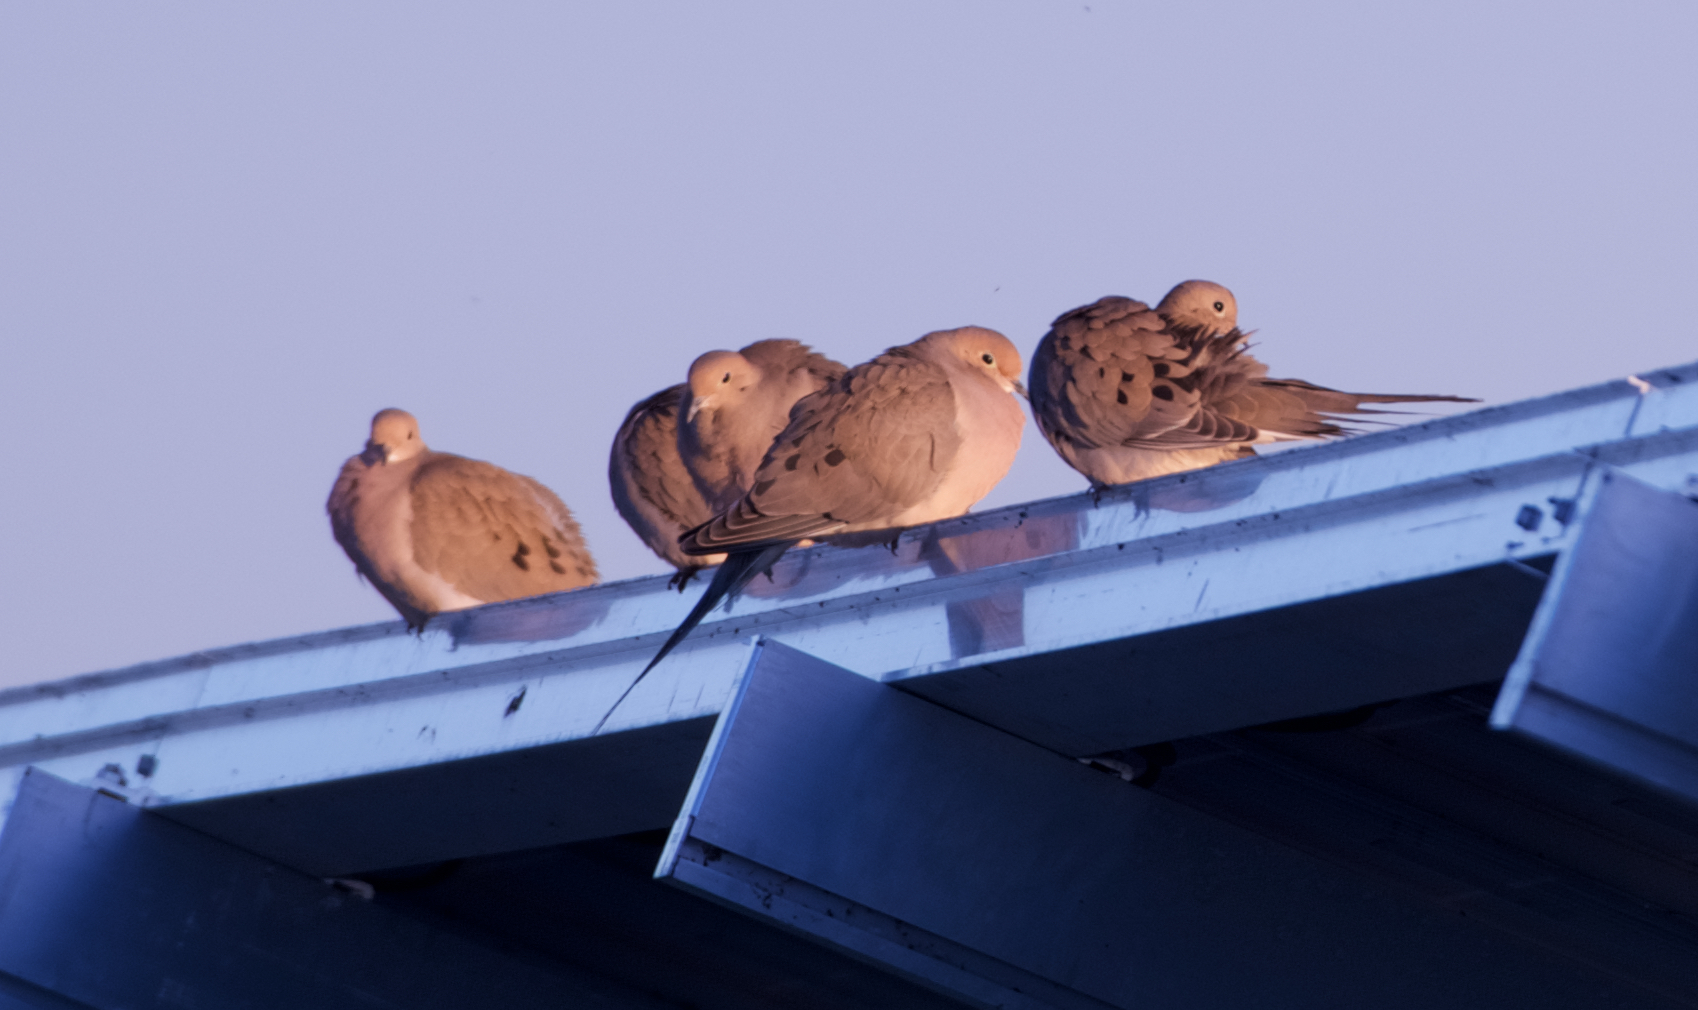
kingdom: Animalia
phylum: Chordata
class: Aves
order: Columbiformes
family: Columbidae
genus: Zenaida
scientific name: Zenaida macroura
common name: Mourning dove
